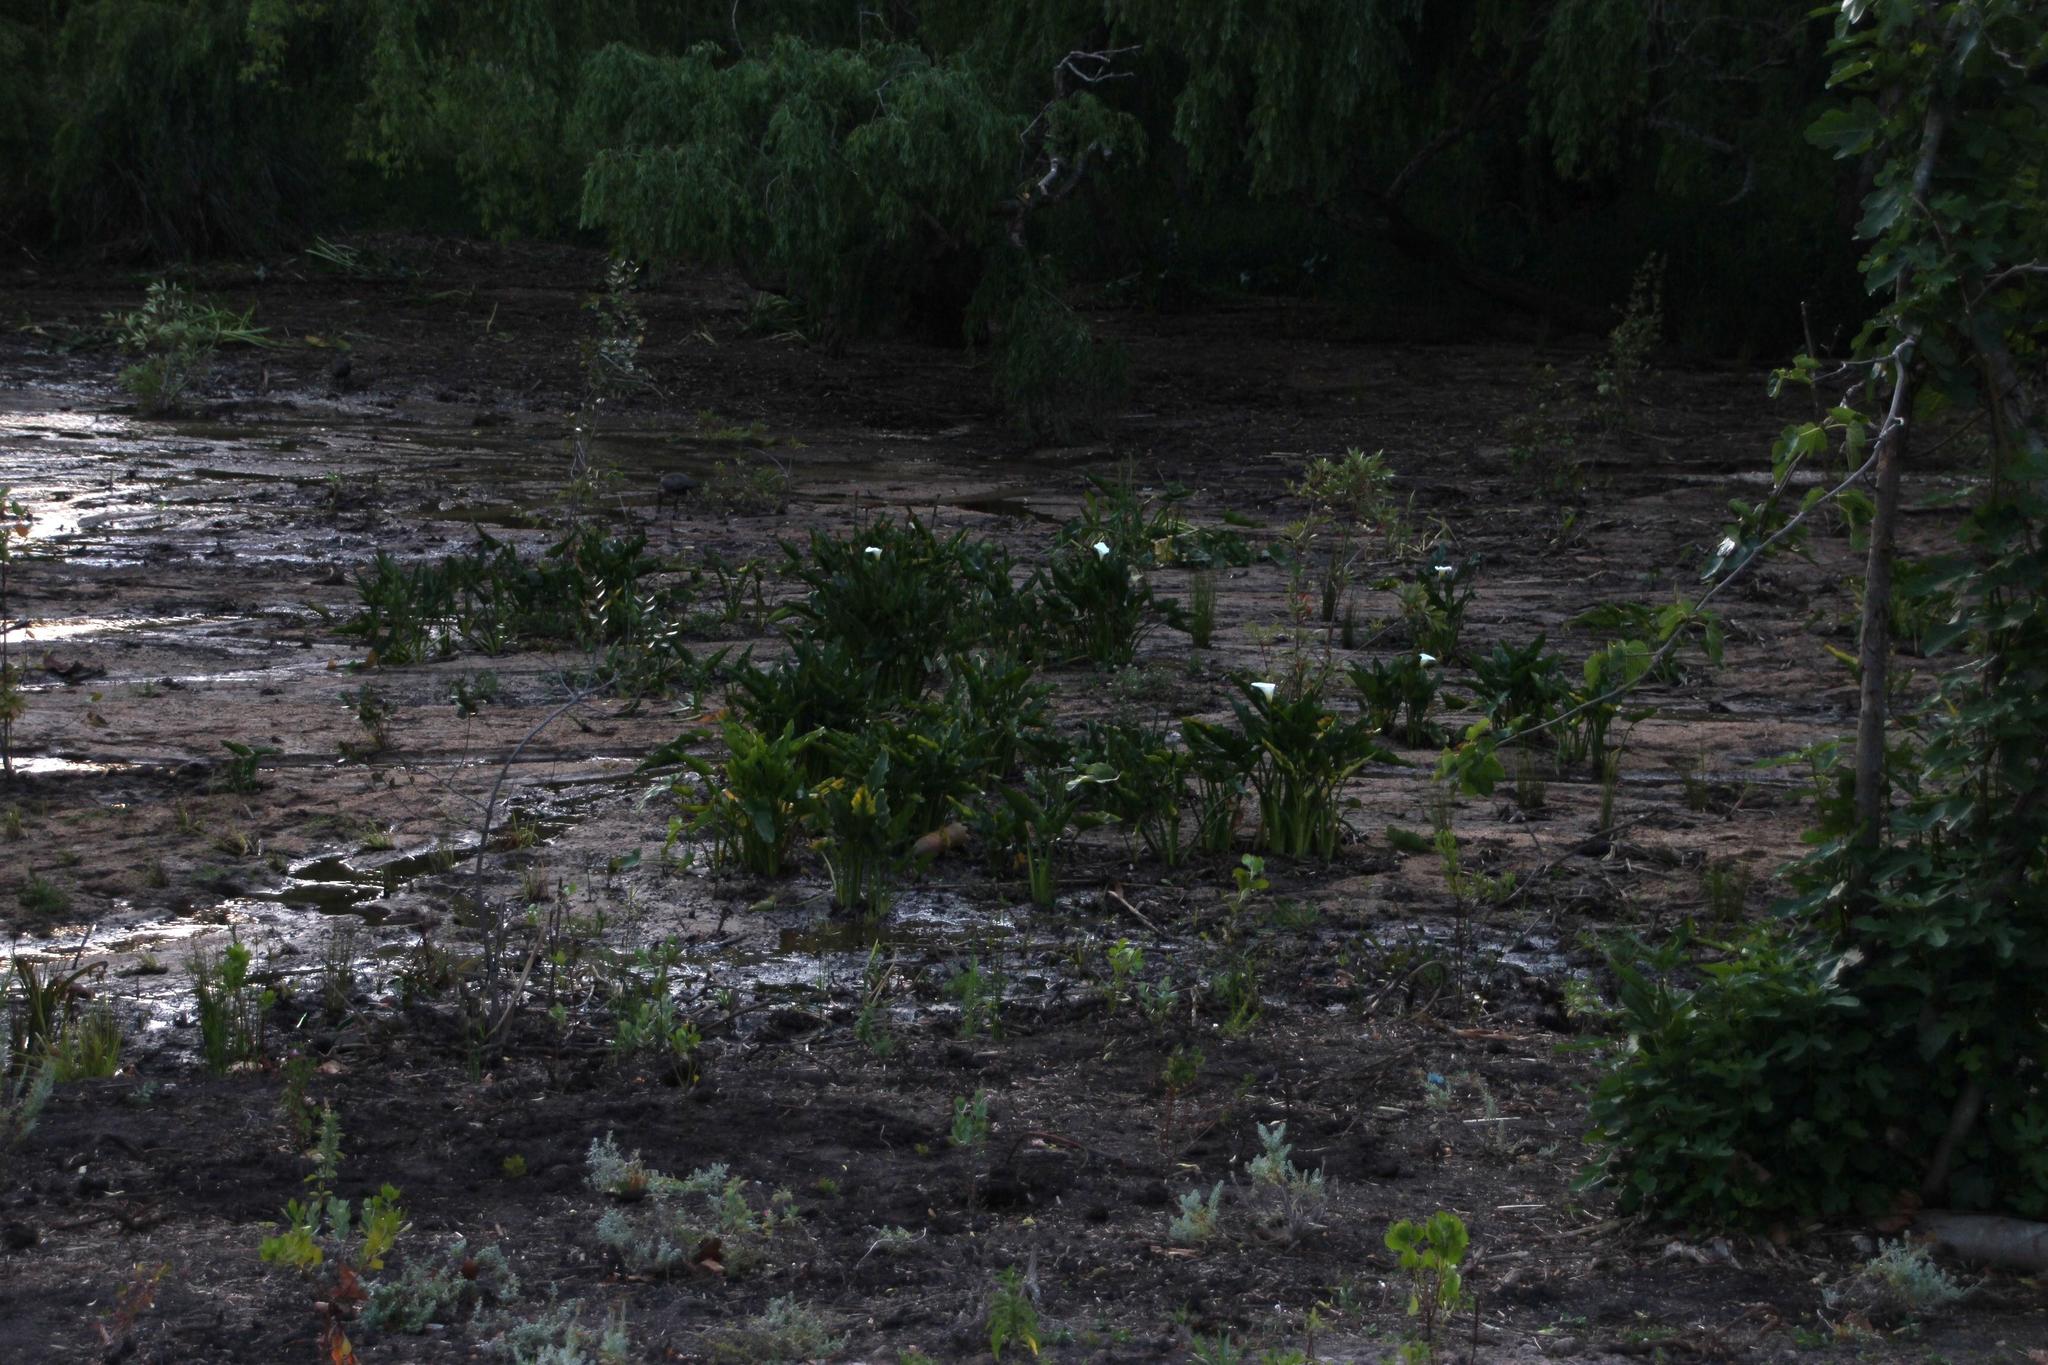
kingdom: Plantae
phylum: Tracheophyta
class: Liliopsida
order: Alismatales
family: Araceae
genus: Zantedeschia
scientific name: Zantedeschia aethiopica
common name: Altar-lily
